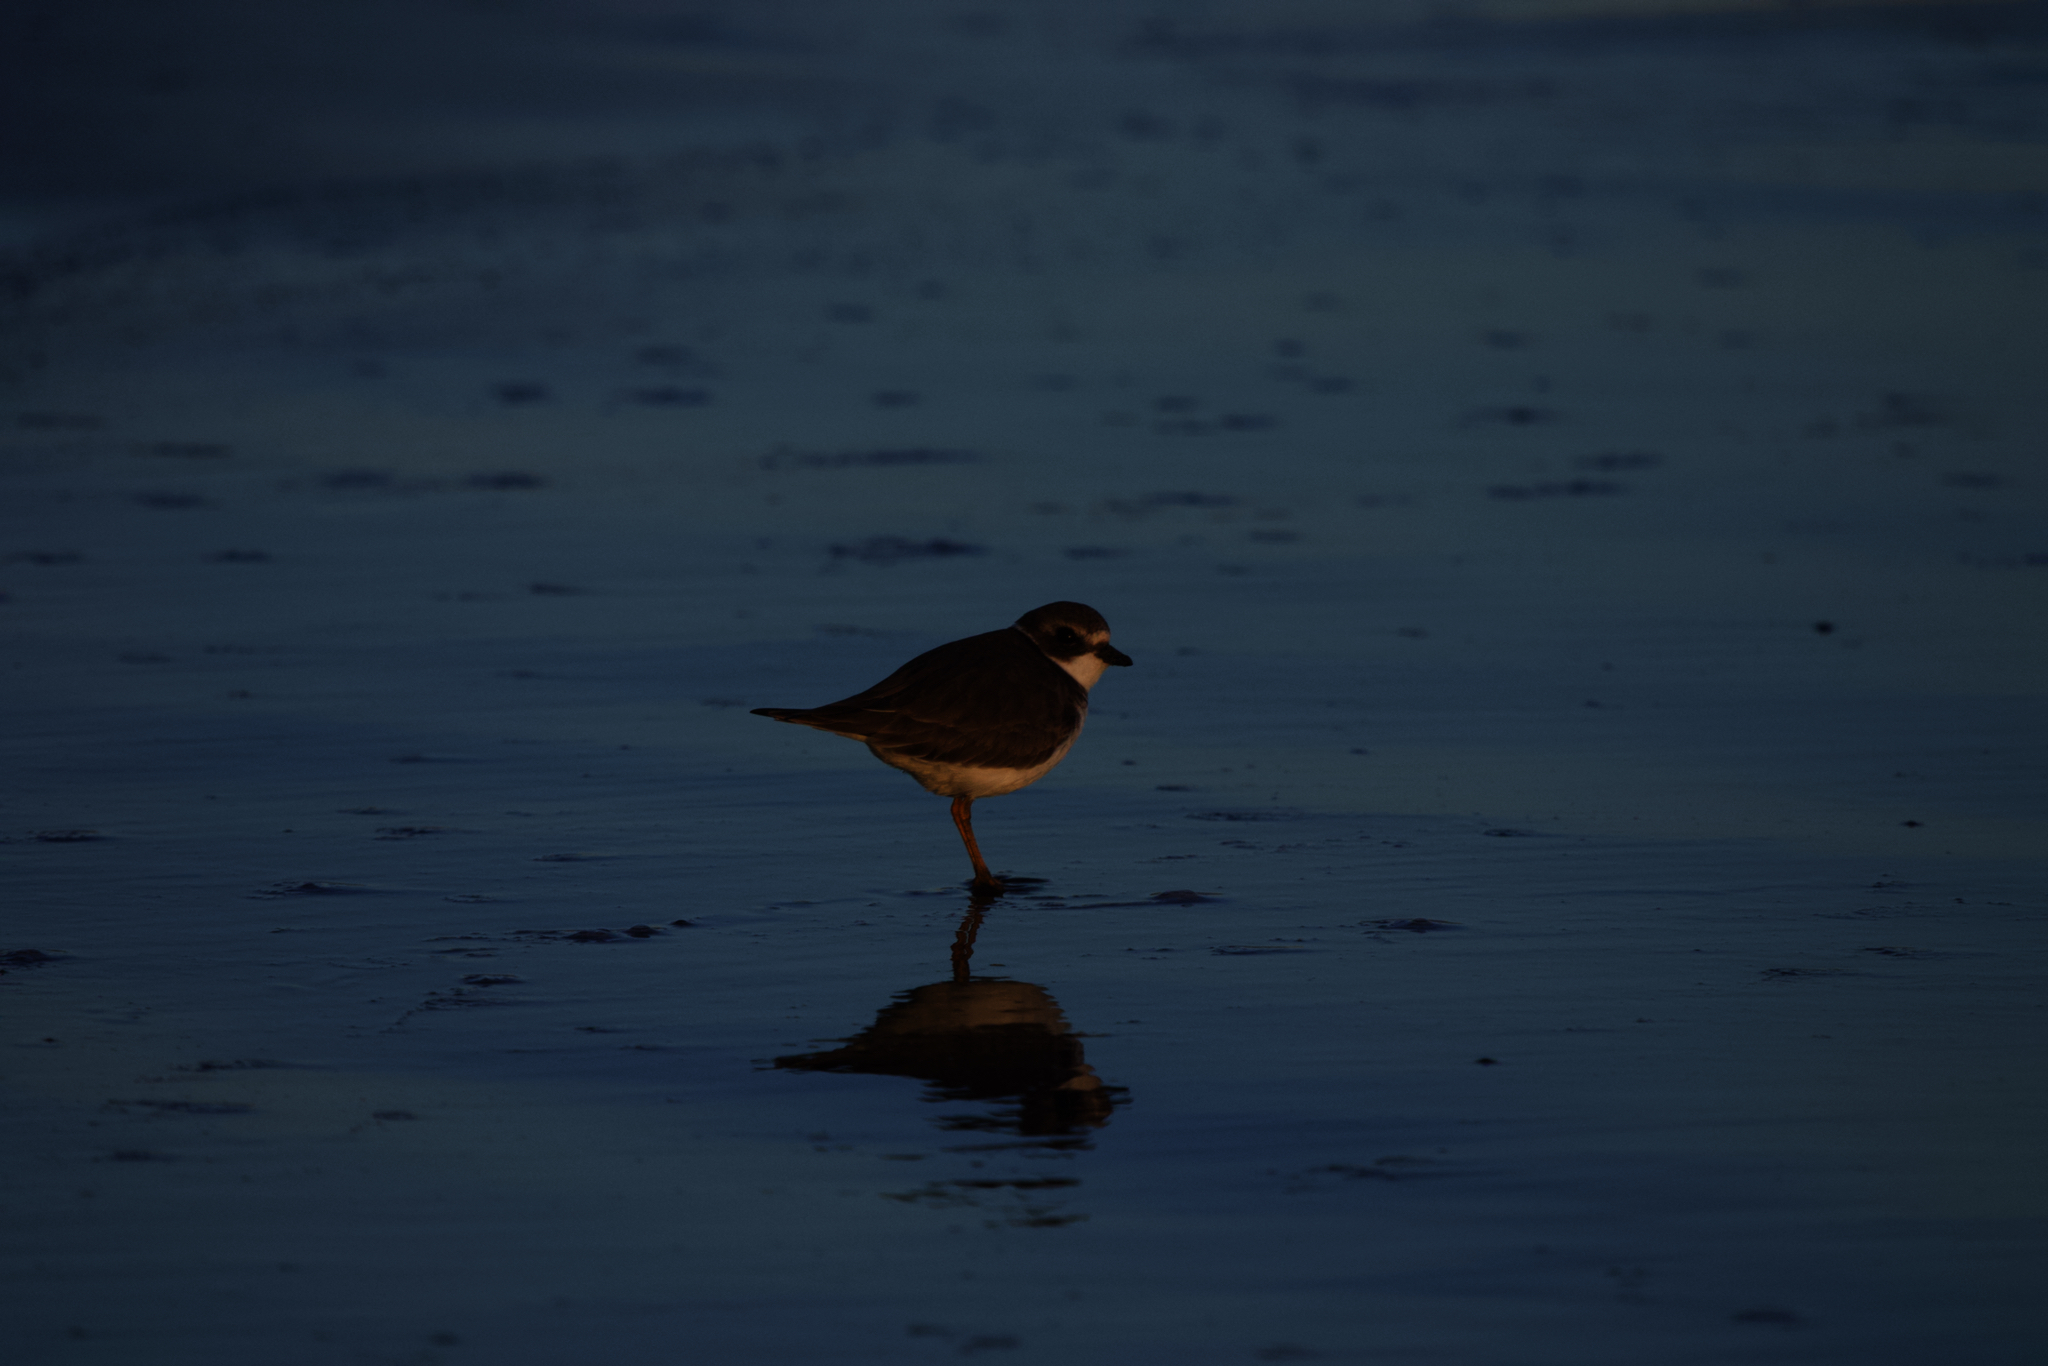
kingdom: Animalia
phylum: Chordata
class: Aves
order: Charadriiformes
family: Charadriidae
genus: Charadrius
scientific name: Charadrius semipalmatus
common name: Semipalmated plover
